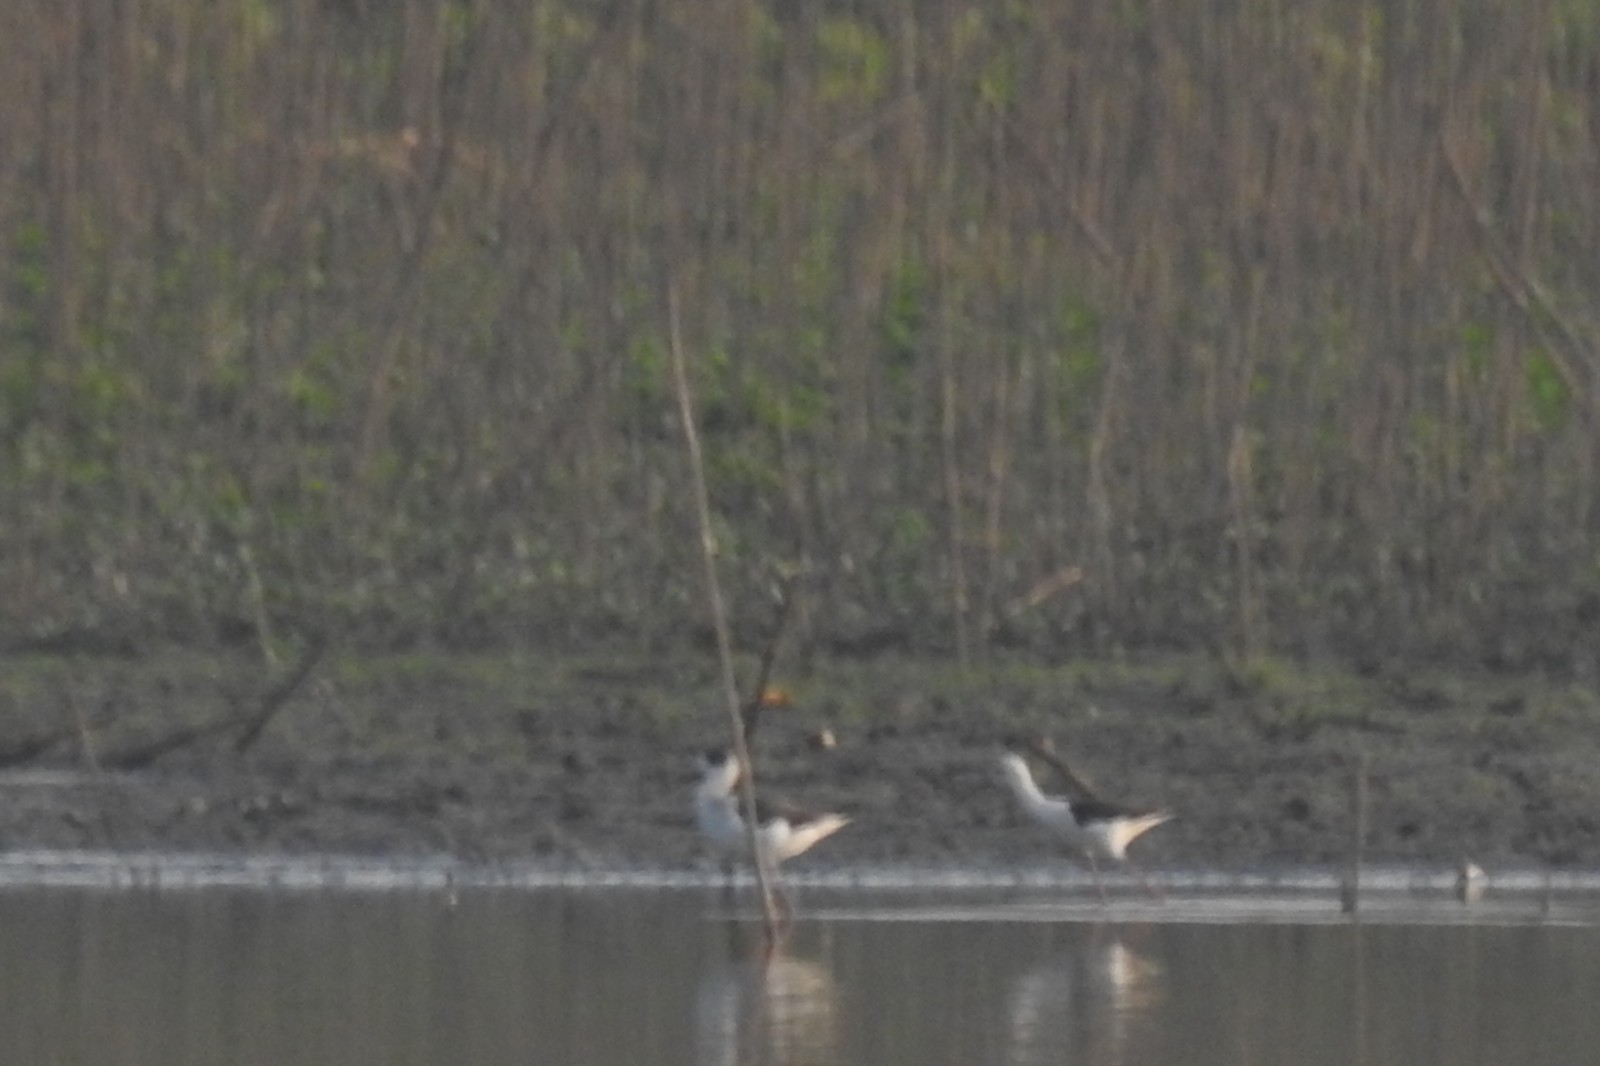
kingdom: Animalia
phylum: Chordata
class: Aves
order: Charadriiformes
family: Recurvirostridae
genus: Himantopus
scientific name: Himantopus himantopus
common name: Black-winged stilt
